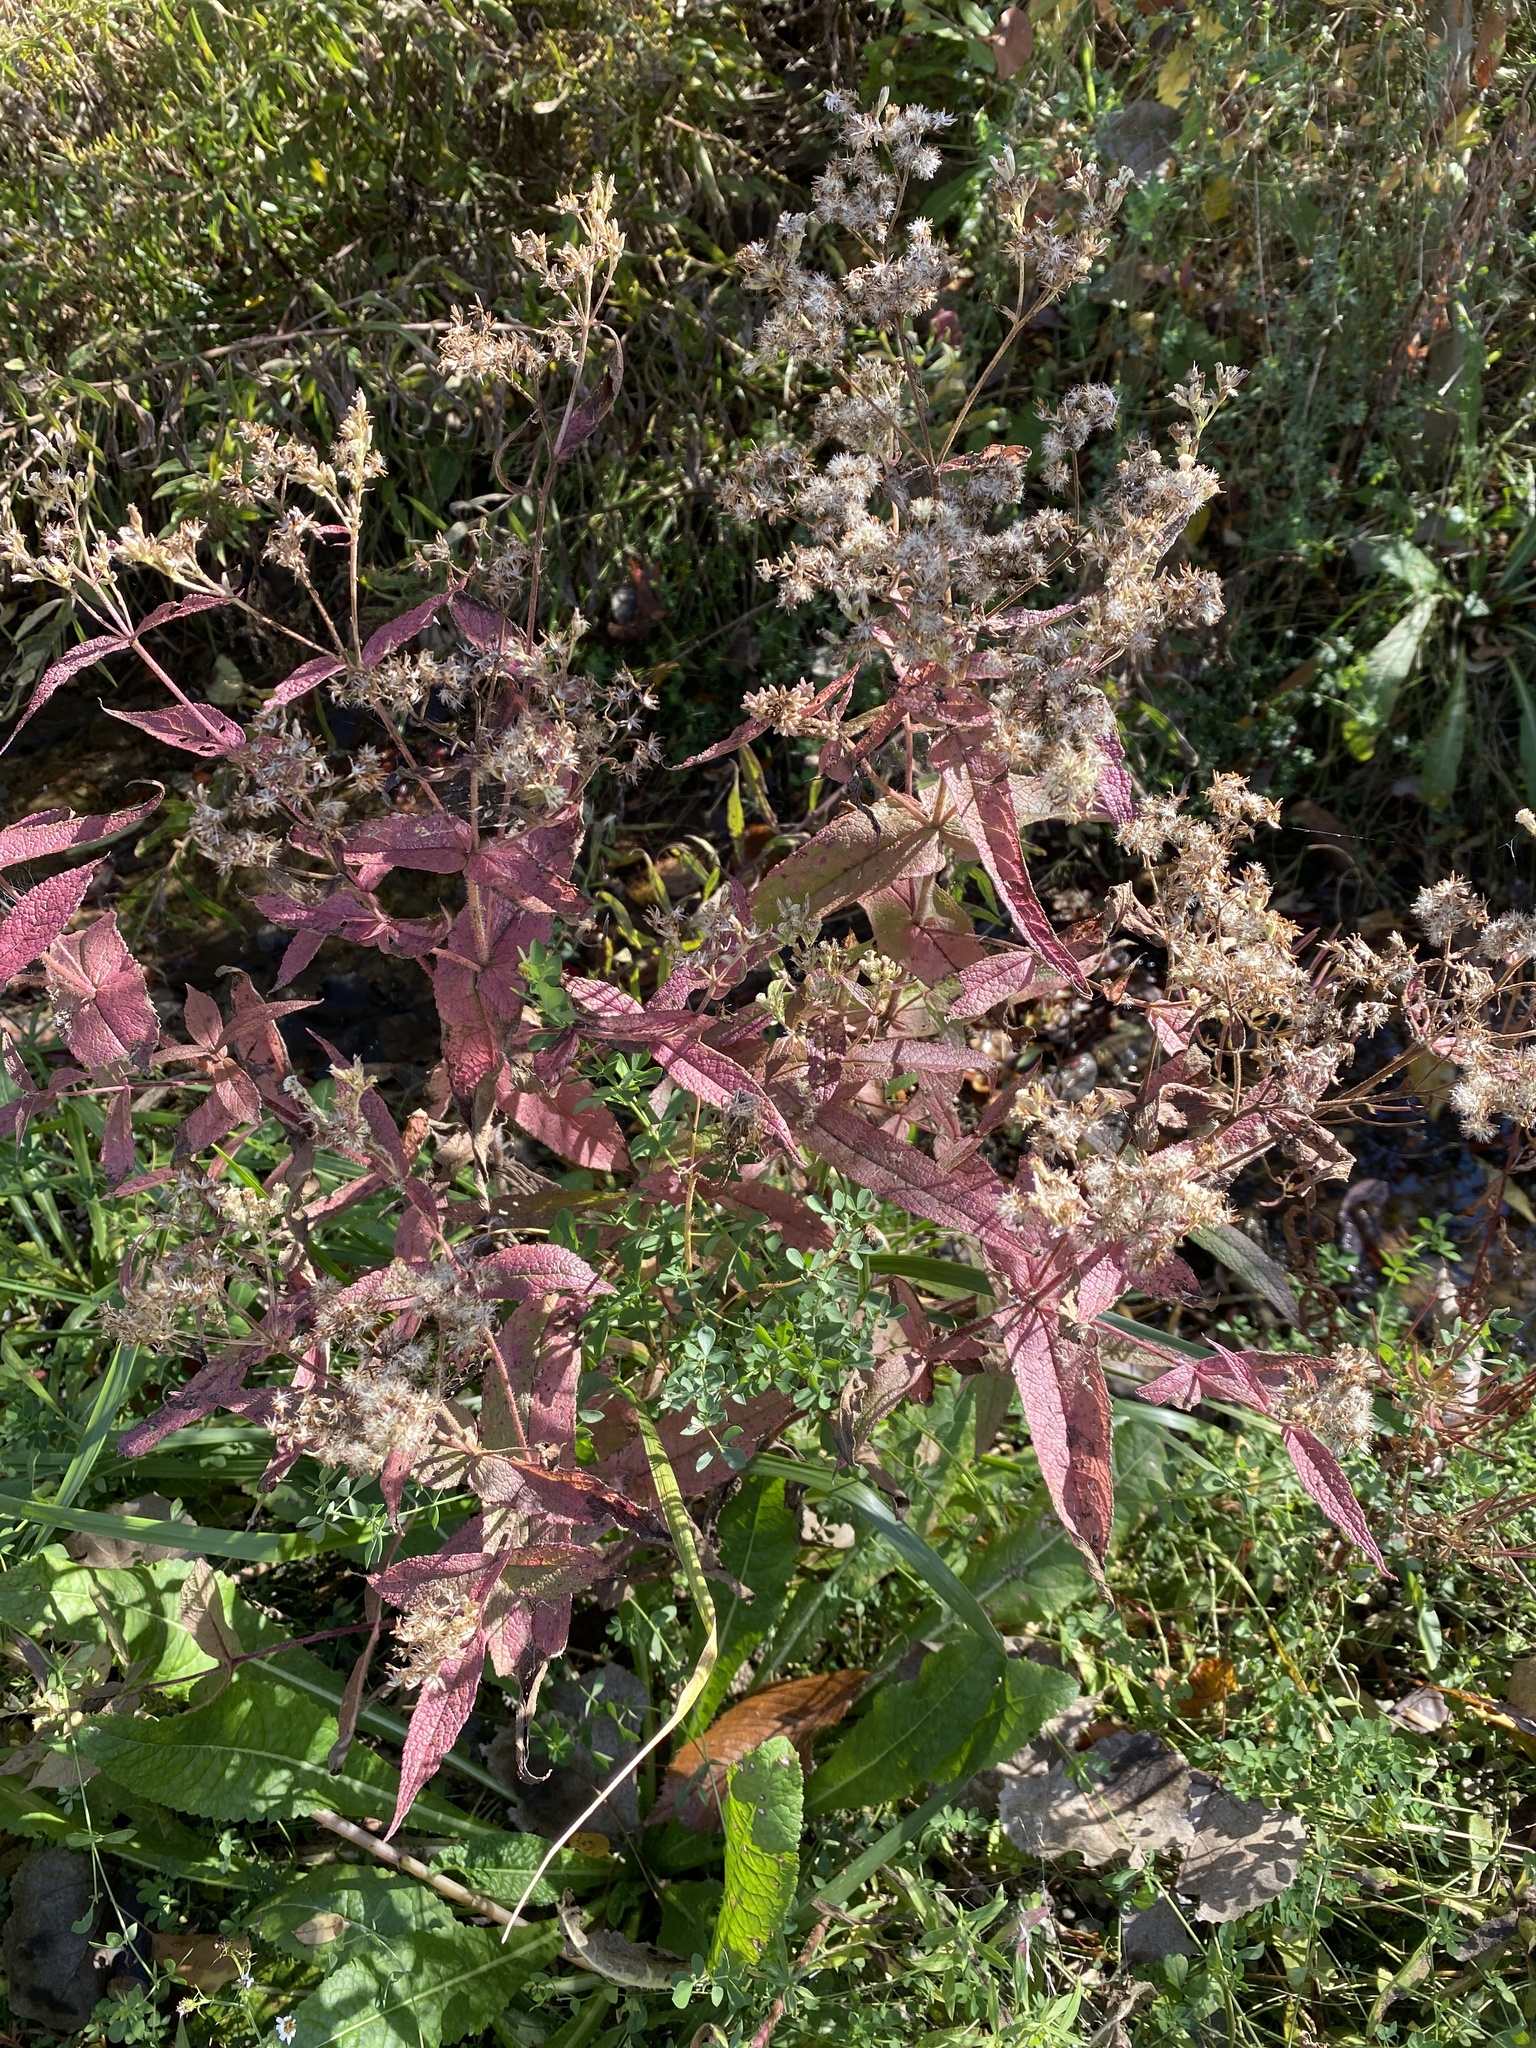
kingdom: Plantae
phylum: Tracheophyta
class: Magnoliopsida
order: Asterales
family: Asteraceae
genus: Eupatorium
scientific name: Eupatorium perfoliatum
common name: Boneset
